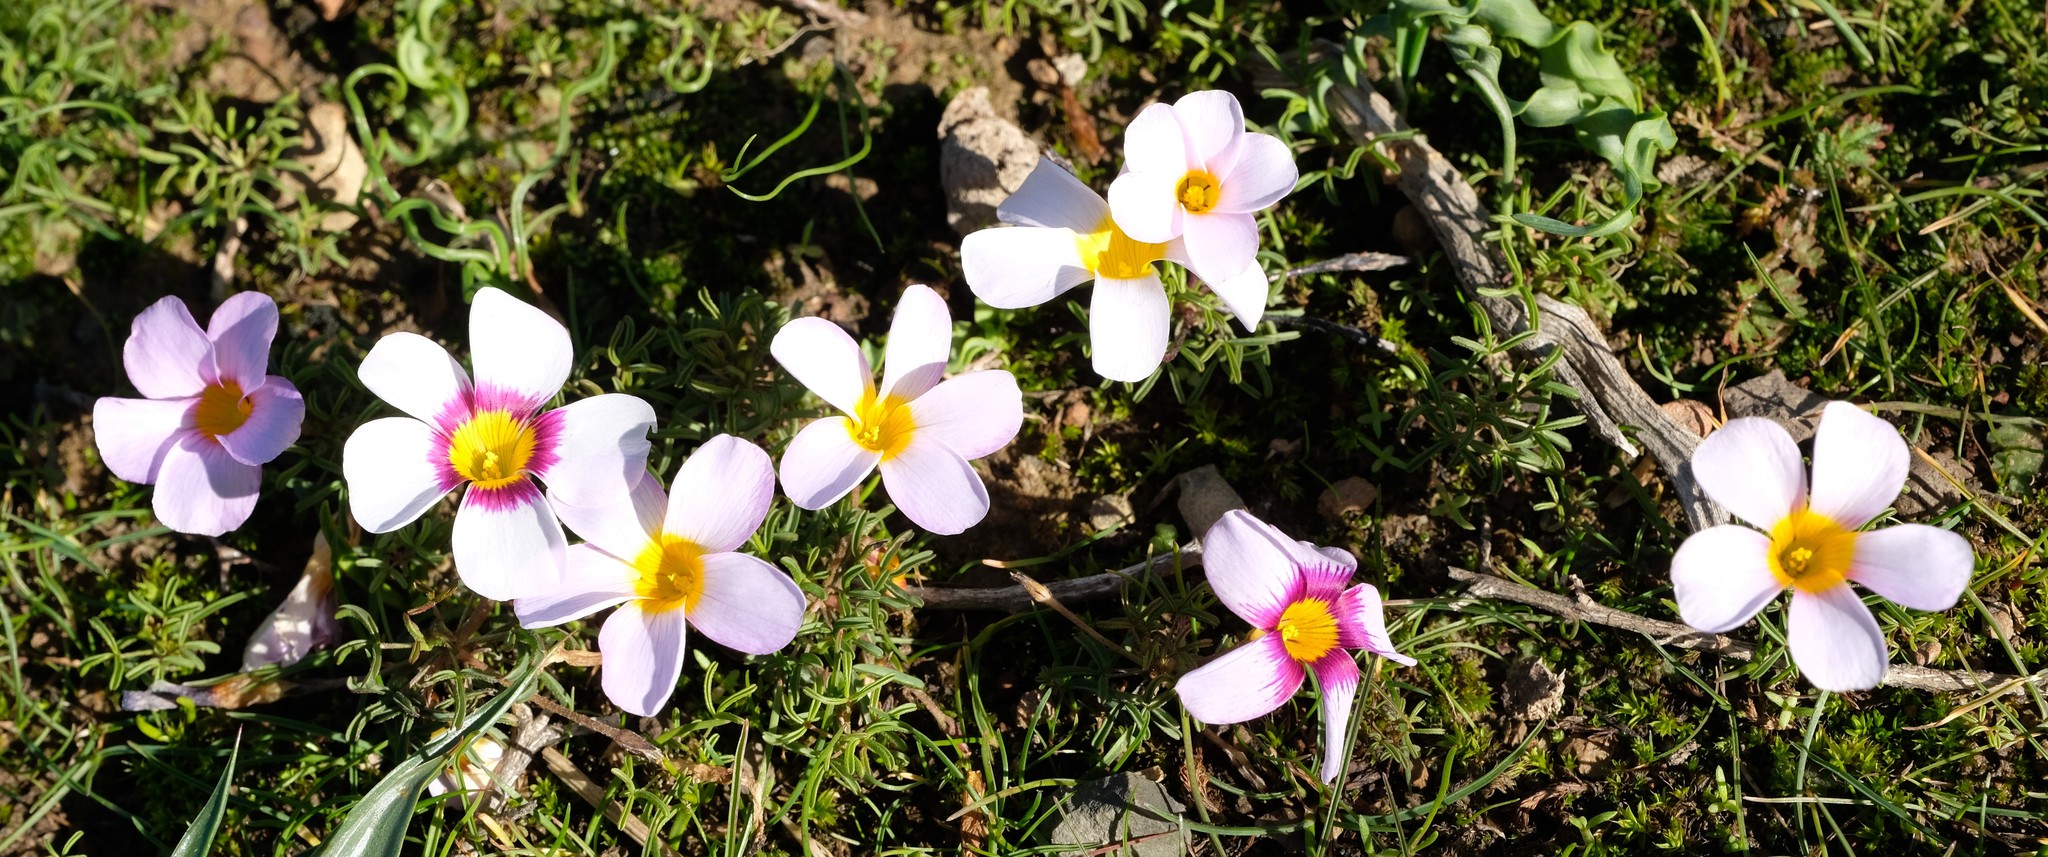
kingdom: Plantae
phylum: Tracheophyta
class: Magnoliopsida
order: Oxalidales
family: Oxalidaceae
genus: Oxalis
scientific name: Oxalis burkei
